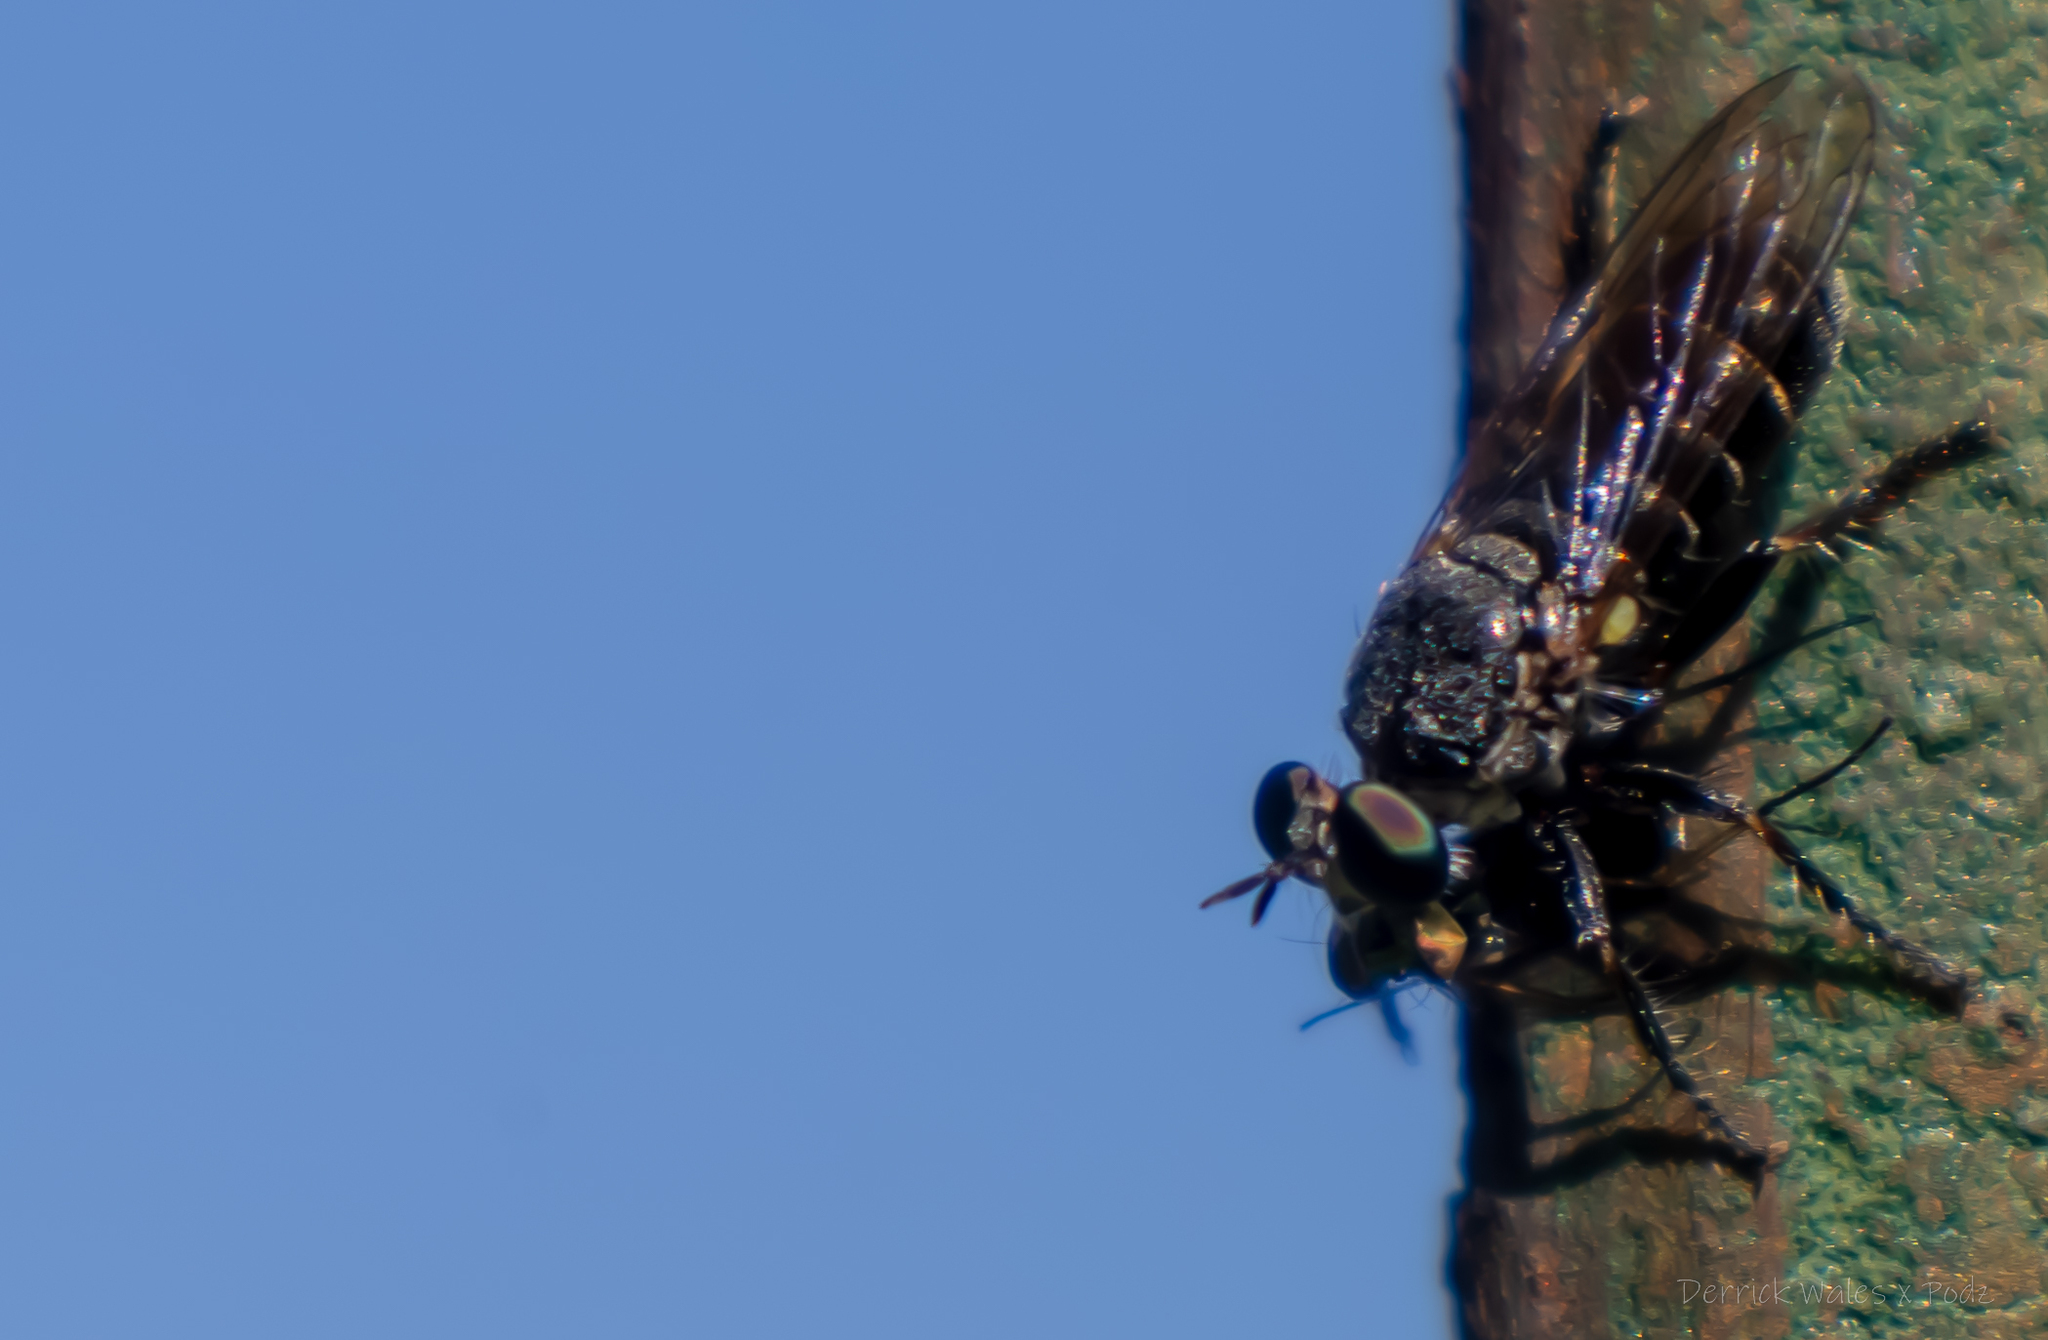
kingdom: Animalia
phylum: Arthropoda
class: Insecta
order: Diptera
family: Asilidae
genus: Atomosia
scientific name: Atomosia puella
